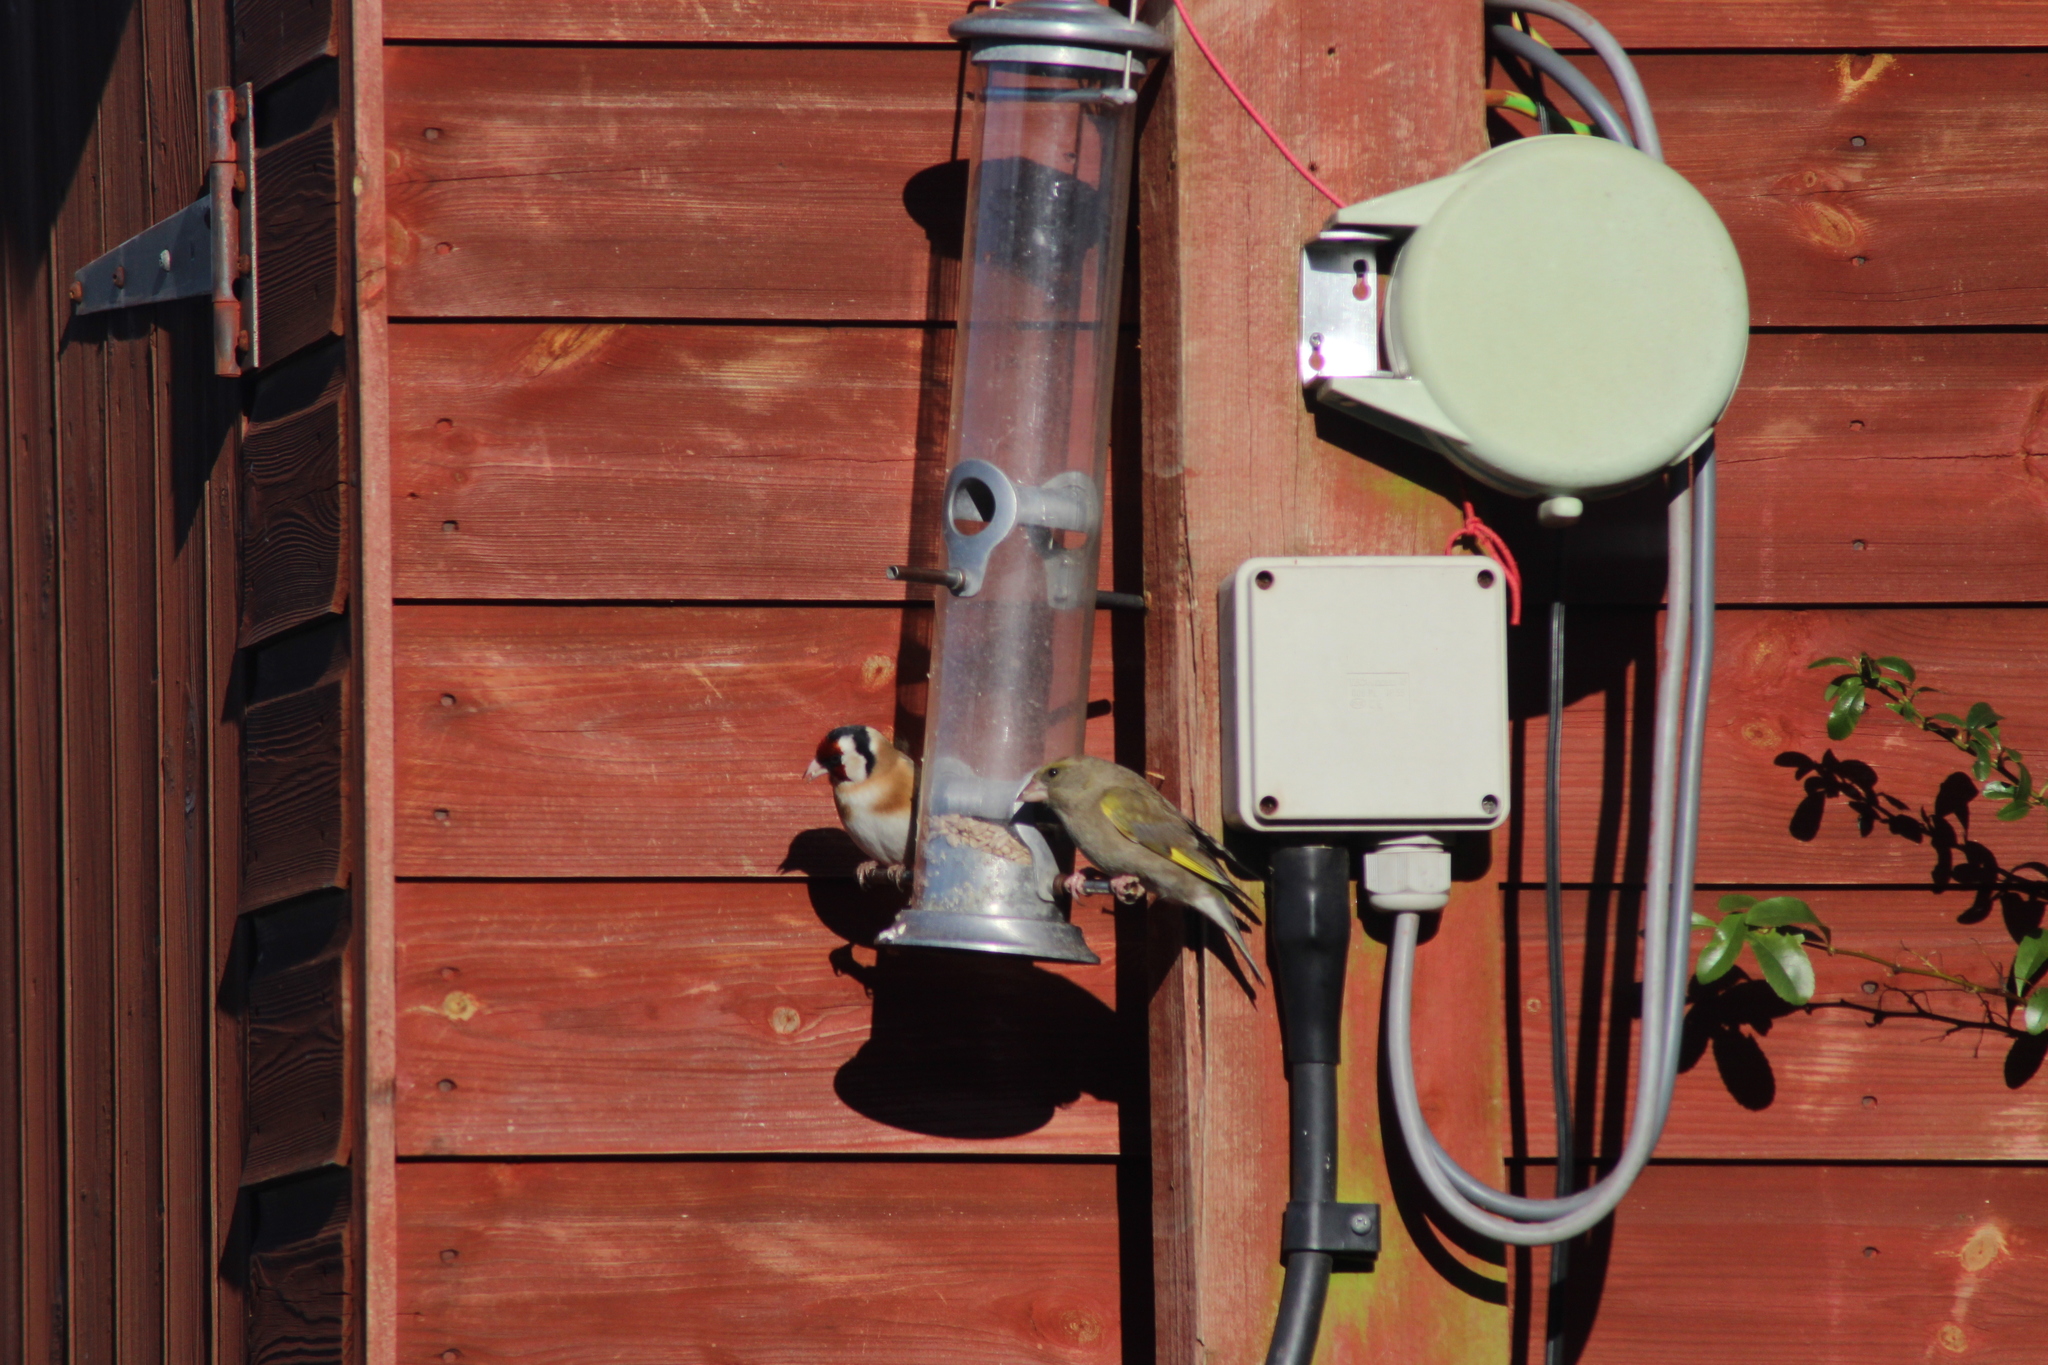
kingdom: Plantae
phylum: Tracheophyta
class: Liliopsida
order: Poales
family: Poaceae
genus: Chloris
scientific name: Chloris chloris
